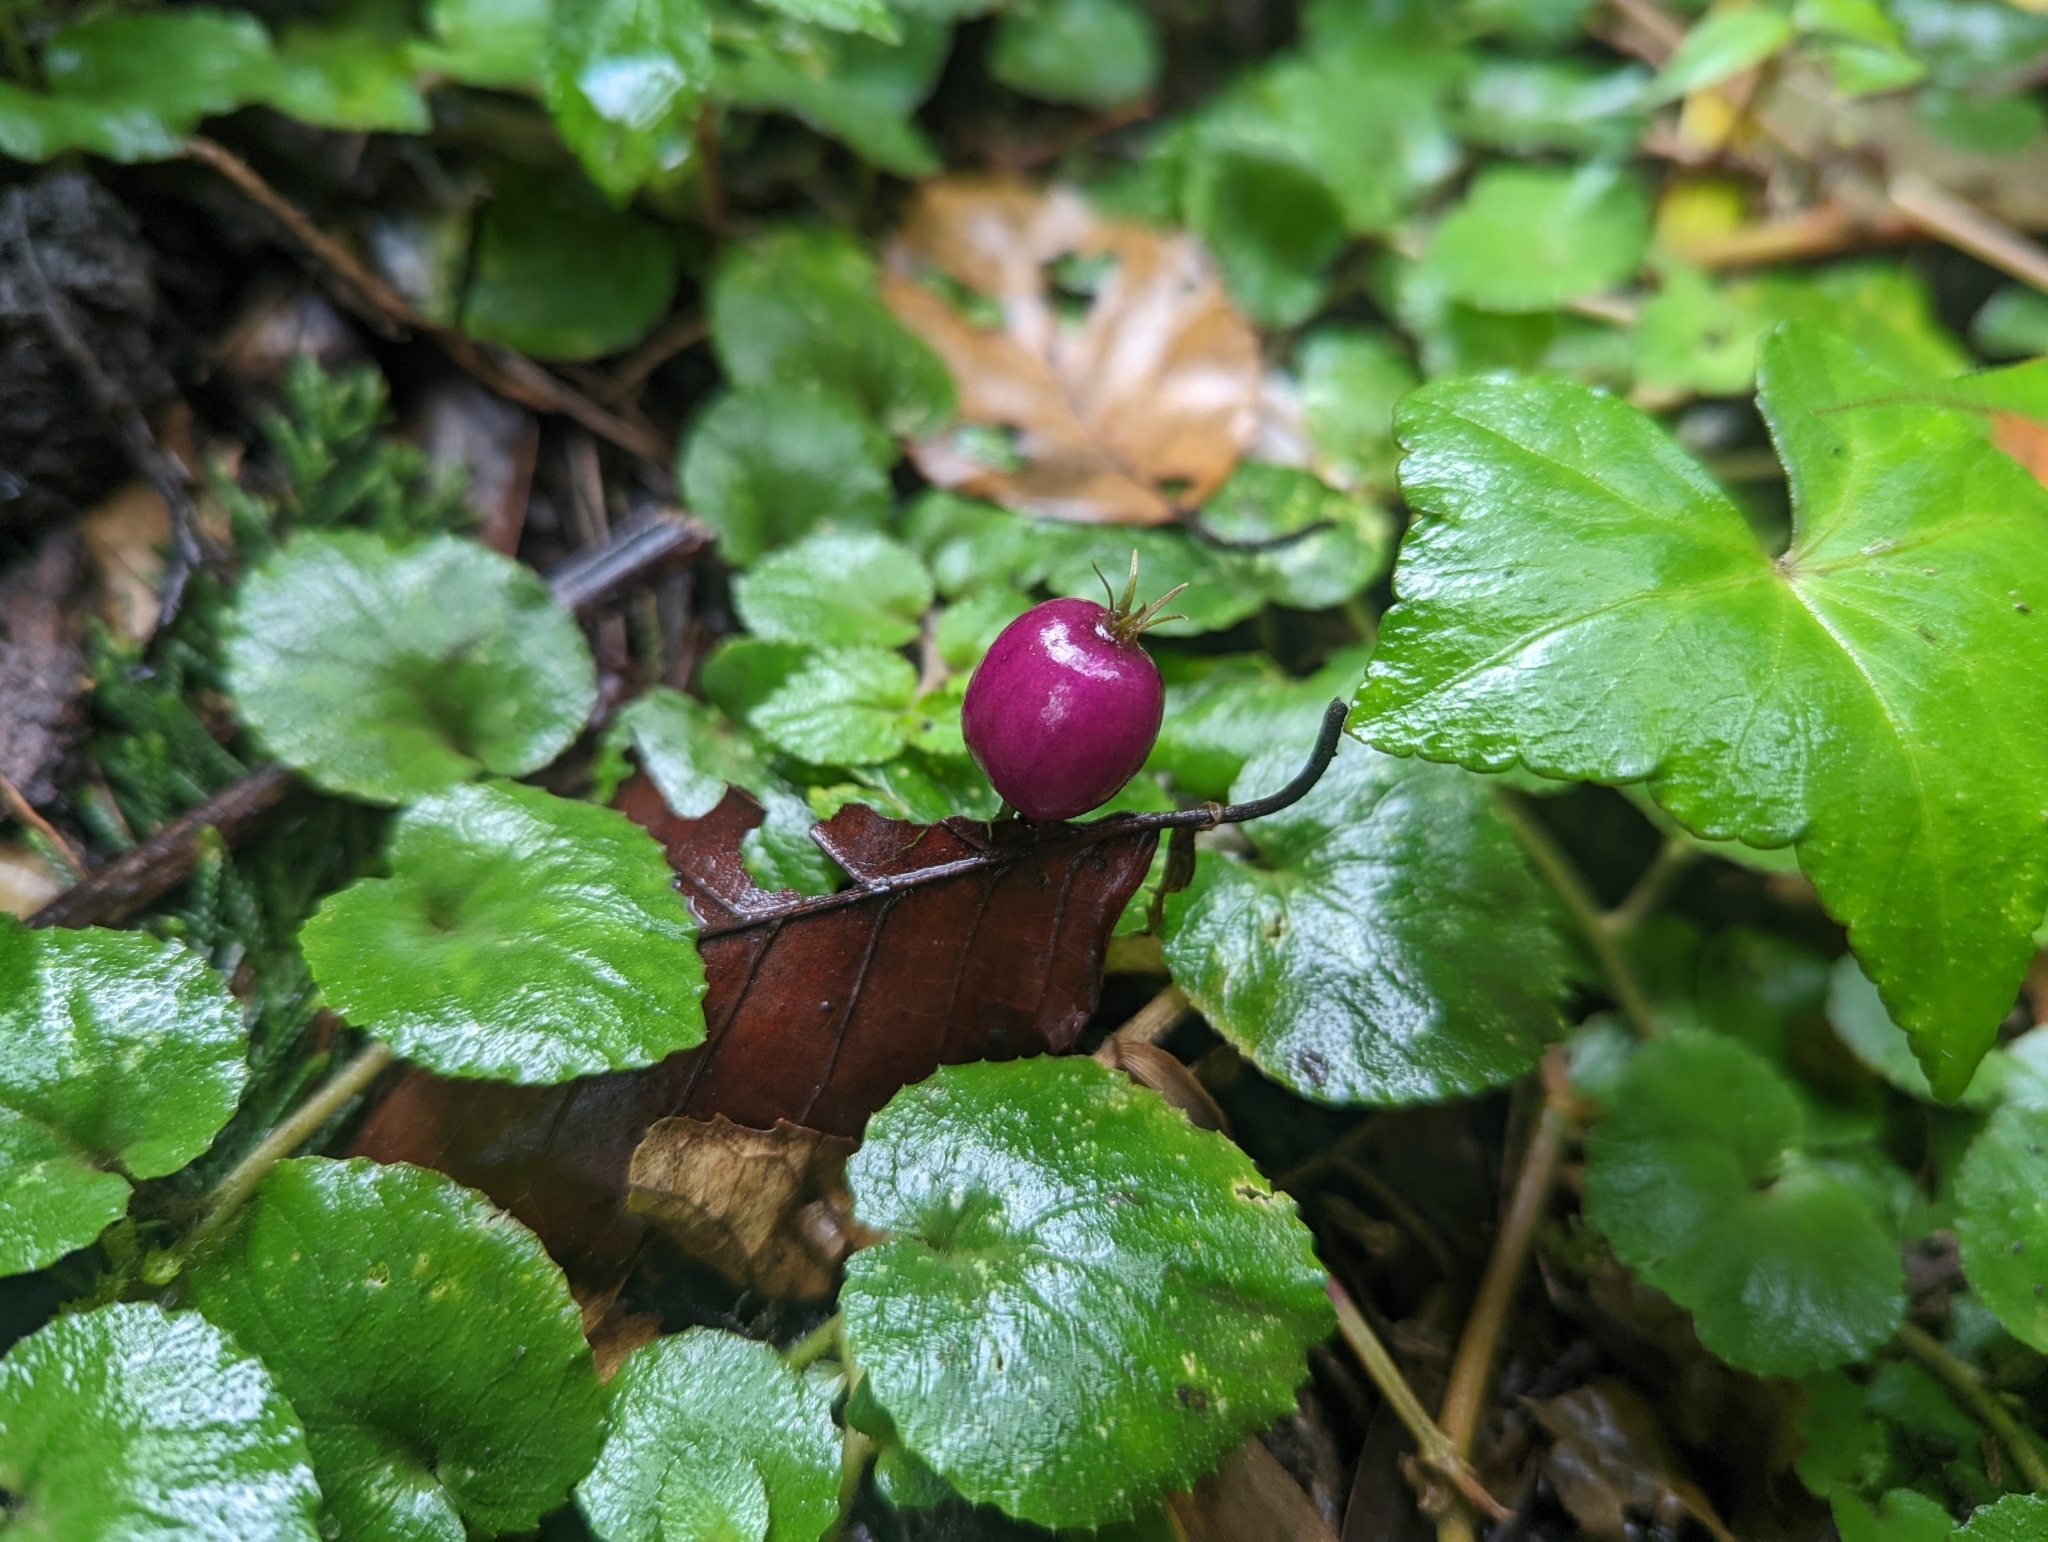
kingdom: Plantae
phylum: Tracheophyta
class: Magnoliopsida
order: Asterales
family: Campanulaceae
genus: Lobelia
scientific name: Lobelia nummularia
